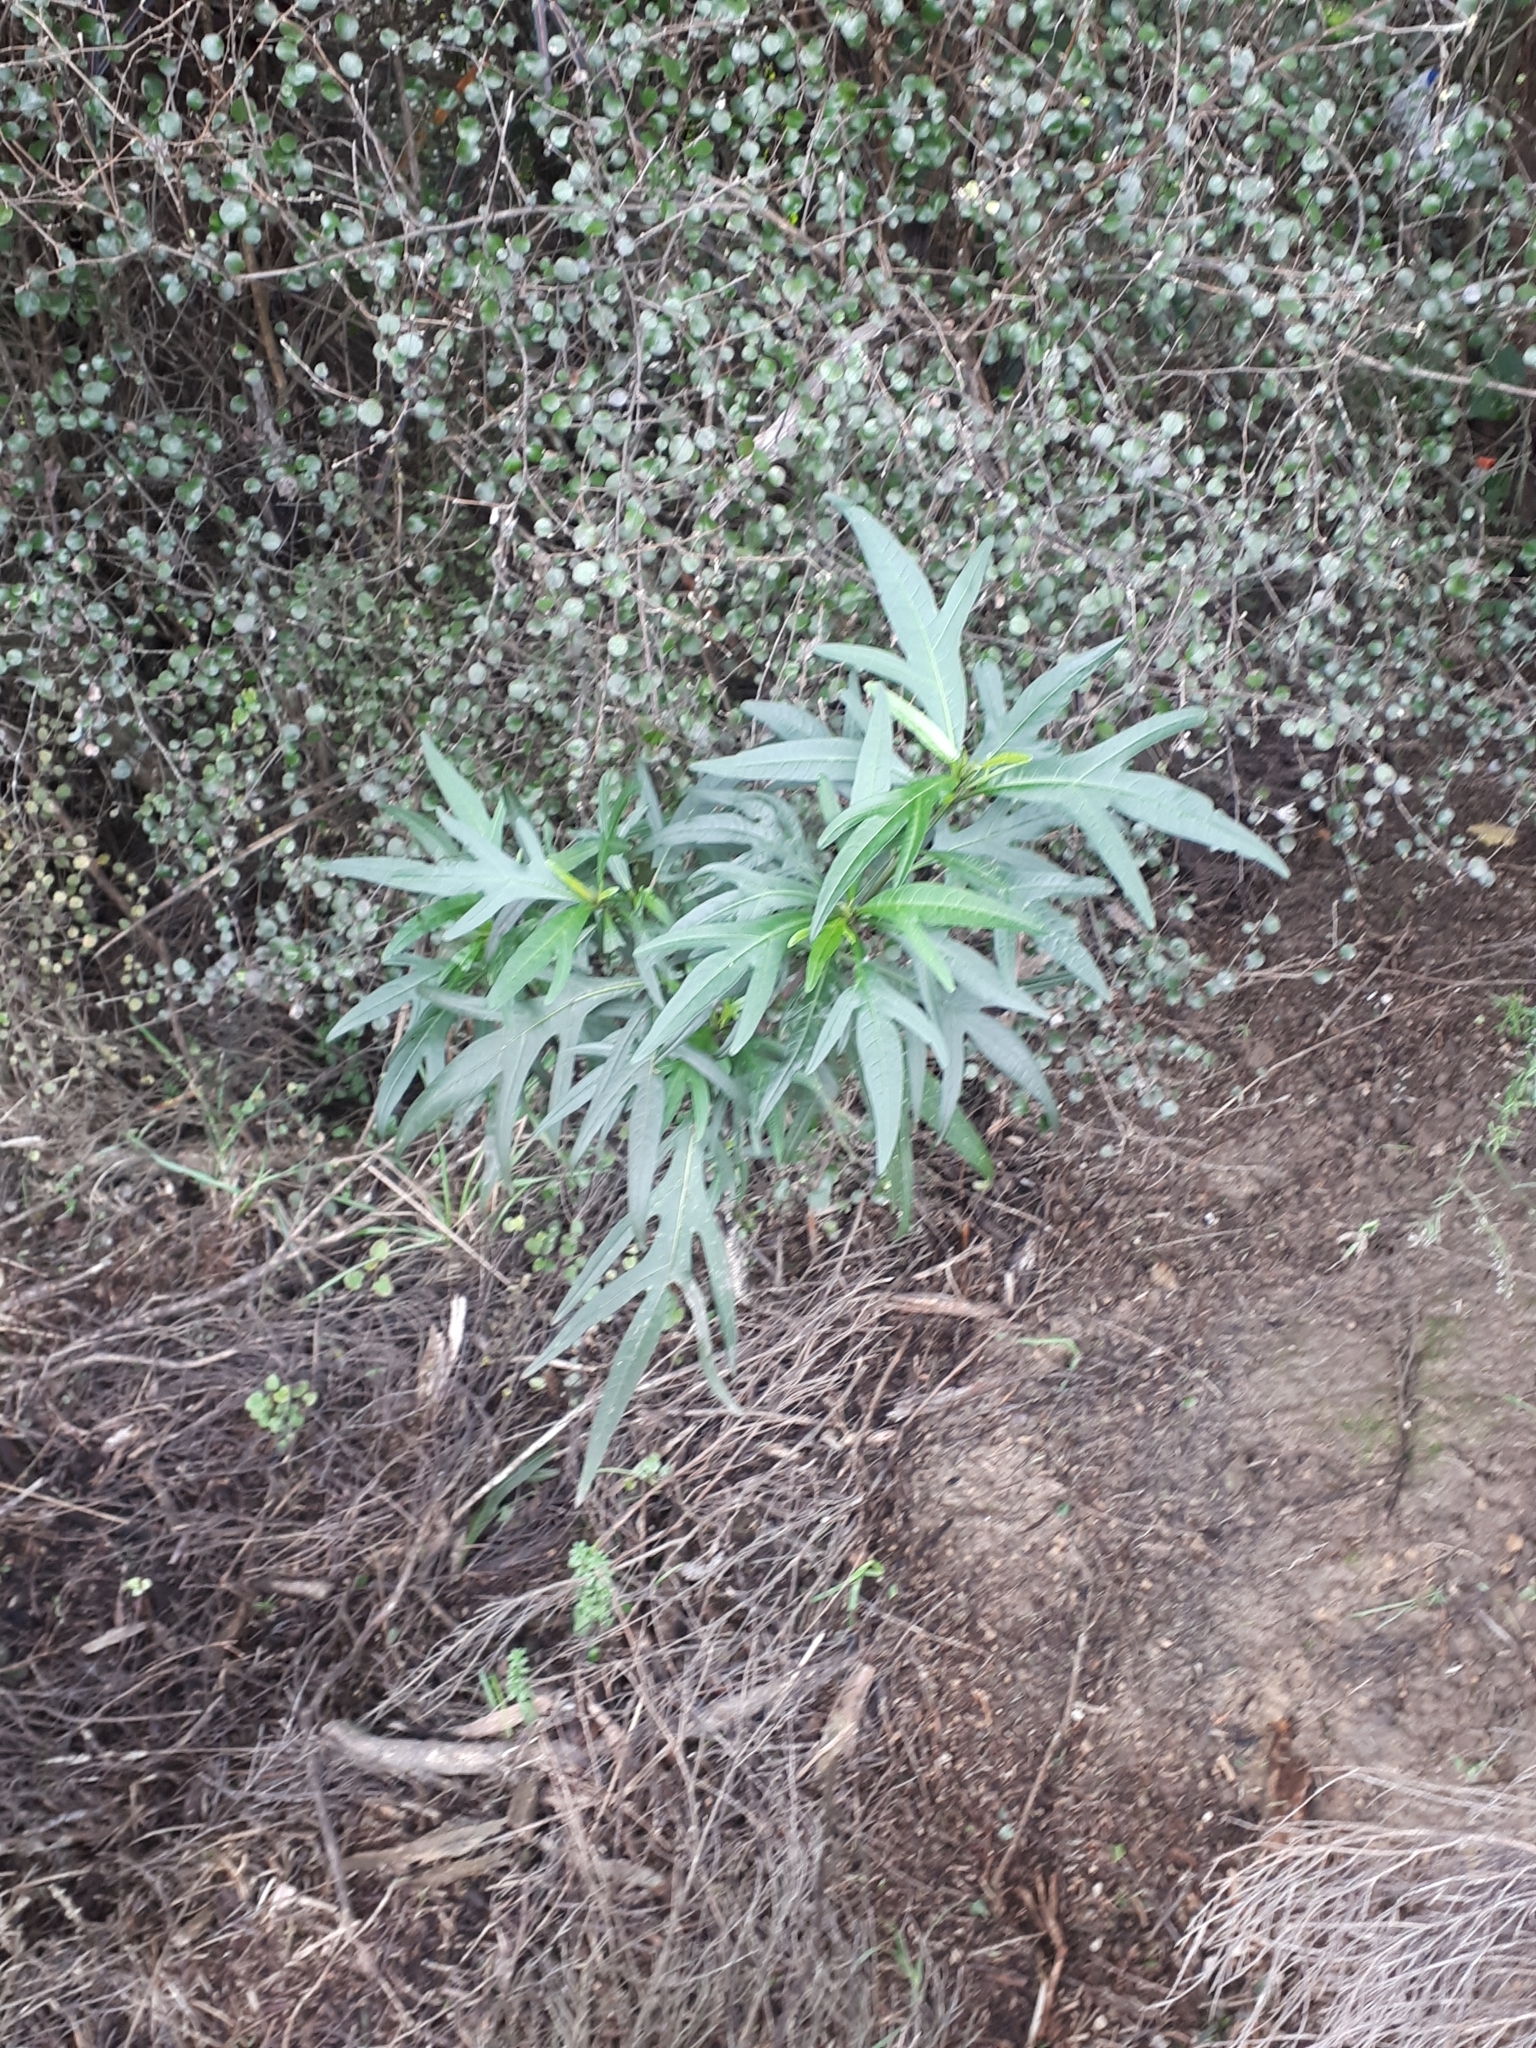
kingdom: Plantae
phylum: Tracheophyta
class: Magnoliopsida
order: Solanales
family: Solanaceae
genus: Solanum
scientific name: Solanum
